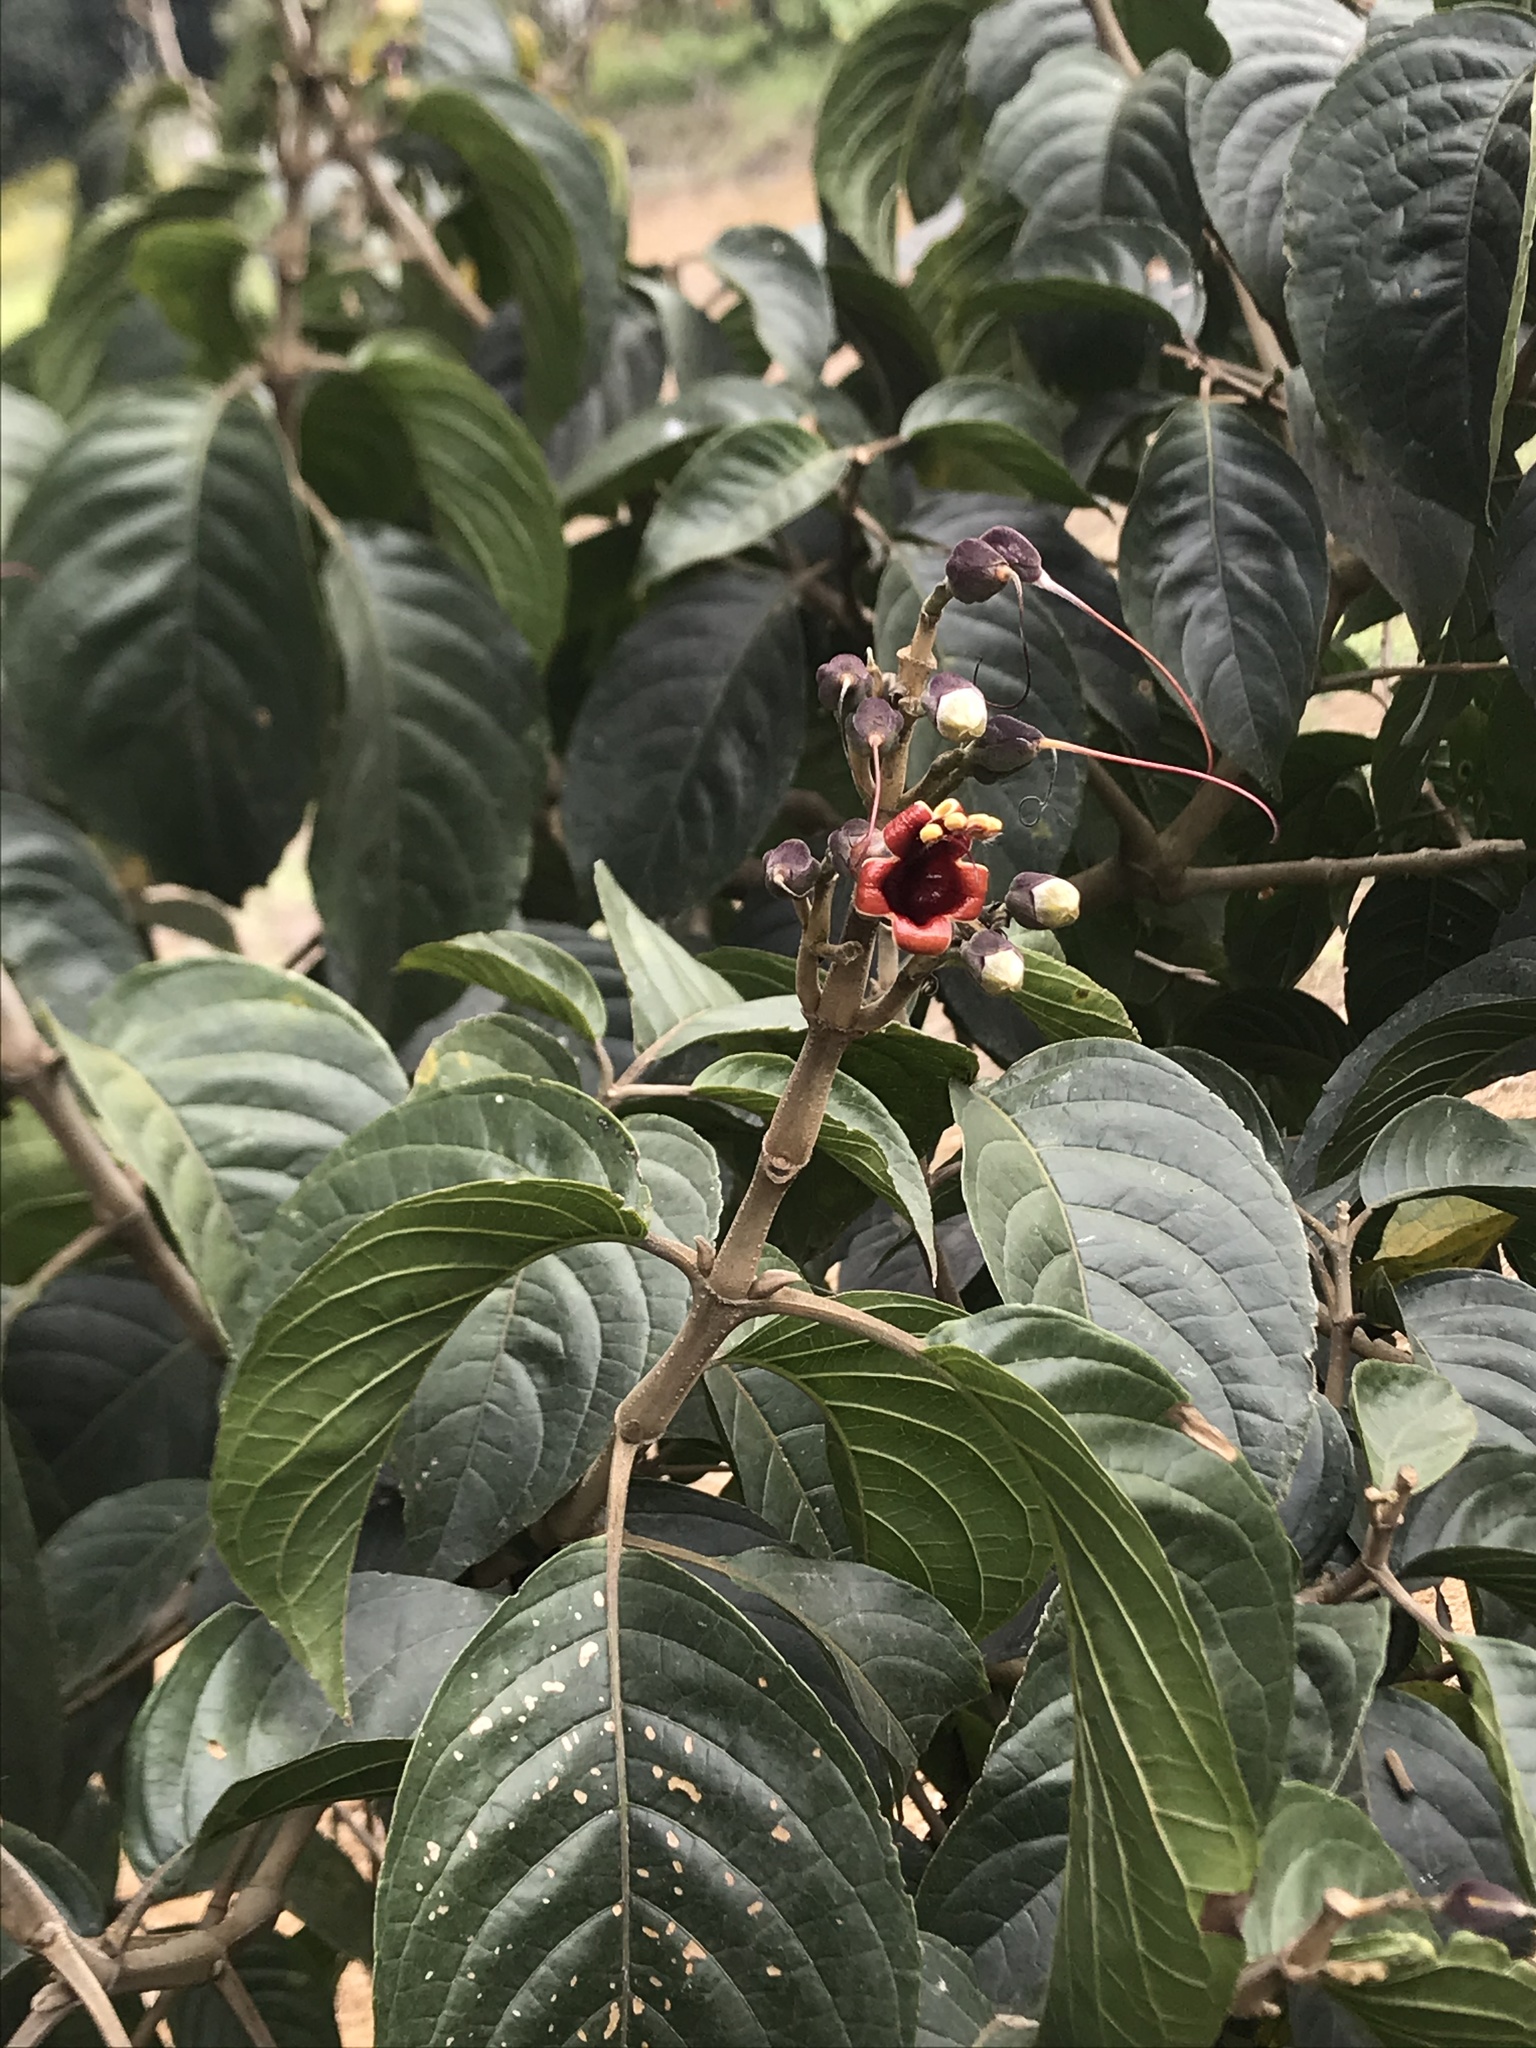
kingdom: Plantae
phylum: Tracheophyta
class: Magnoliopsida
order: Lamiales
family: Acanthaceae
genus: Trichanthera
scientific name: Trichanthera gigantea
